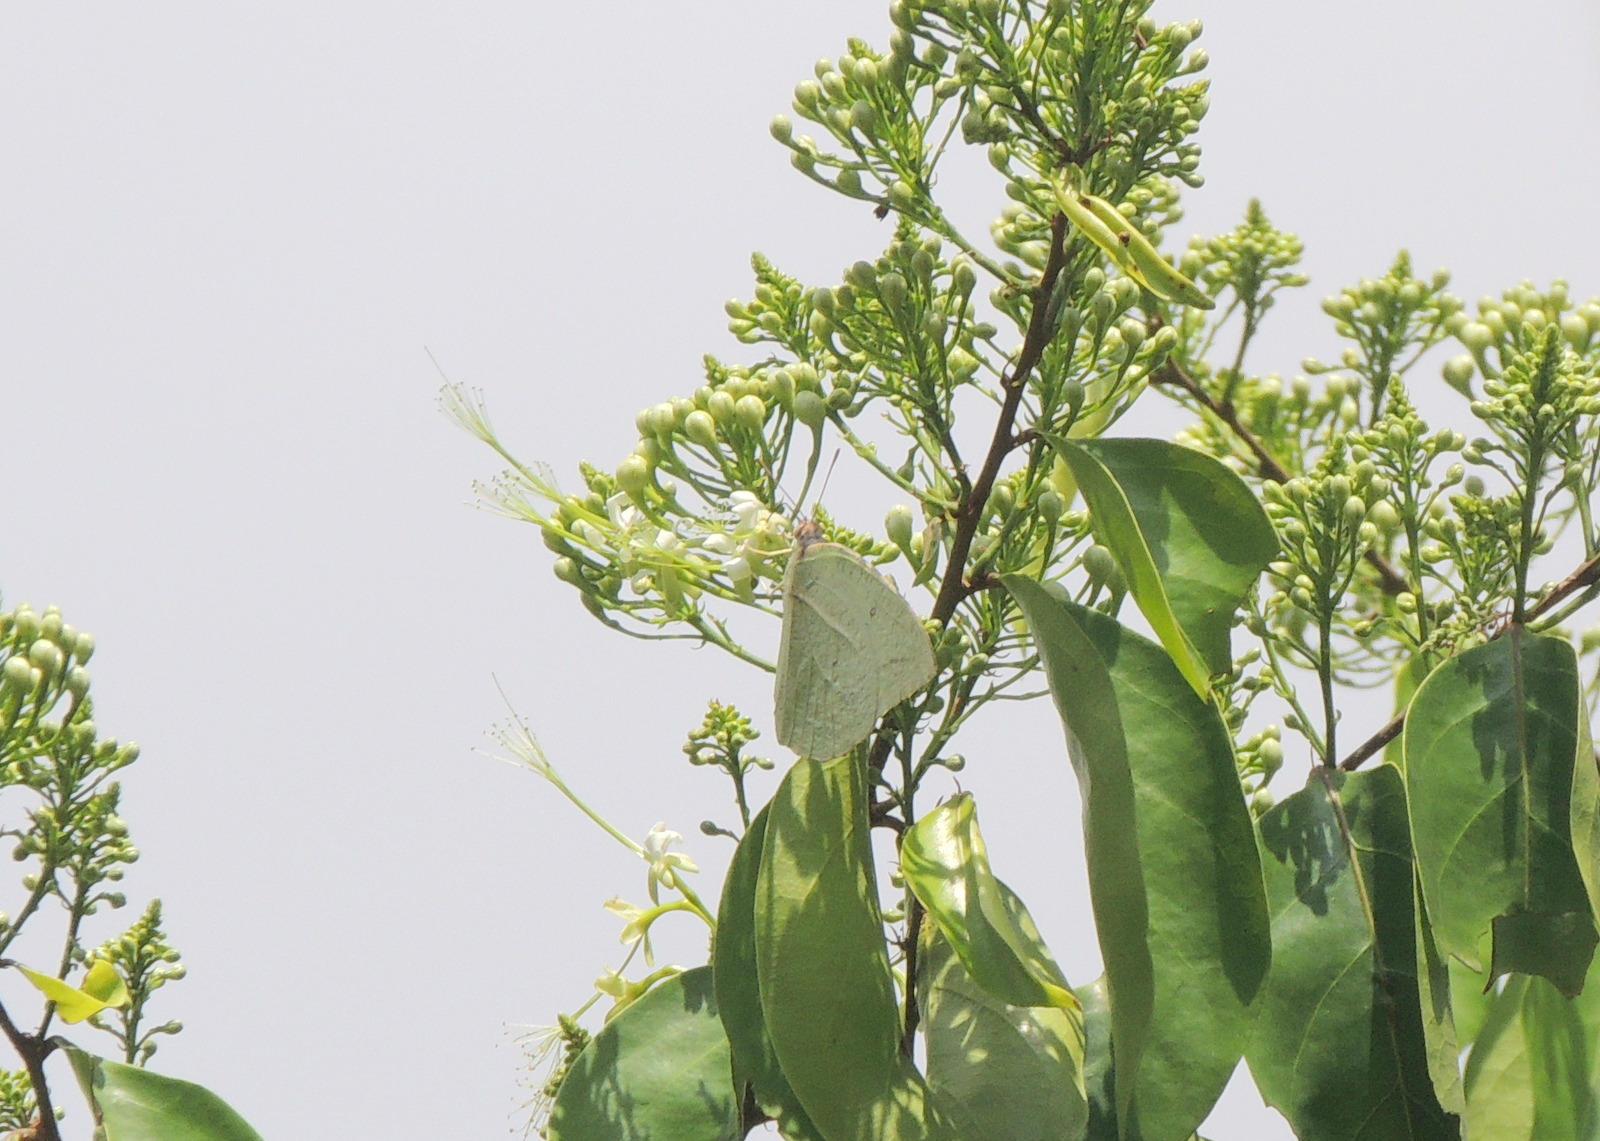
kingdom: Animalia
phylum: Arthropoda
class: Insecta
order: Lepidoptera
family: Pieridae
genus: Catopsilia
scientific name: Catopsilia florella
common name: African migrant
